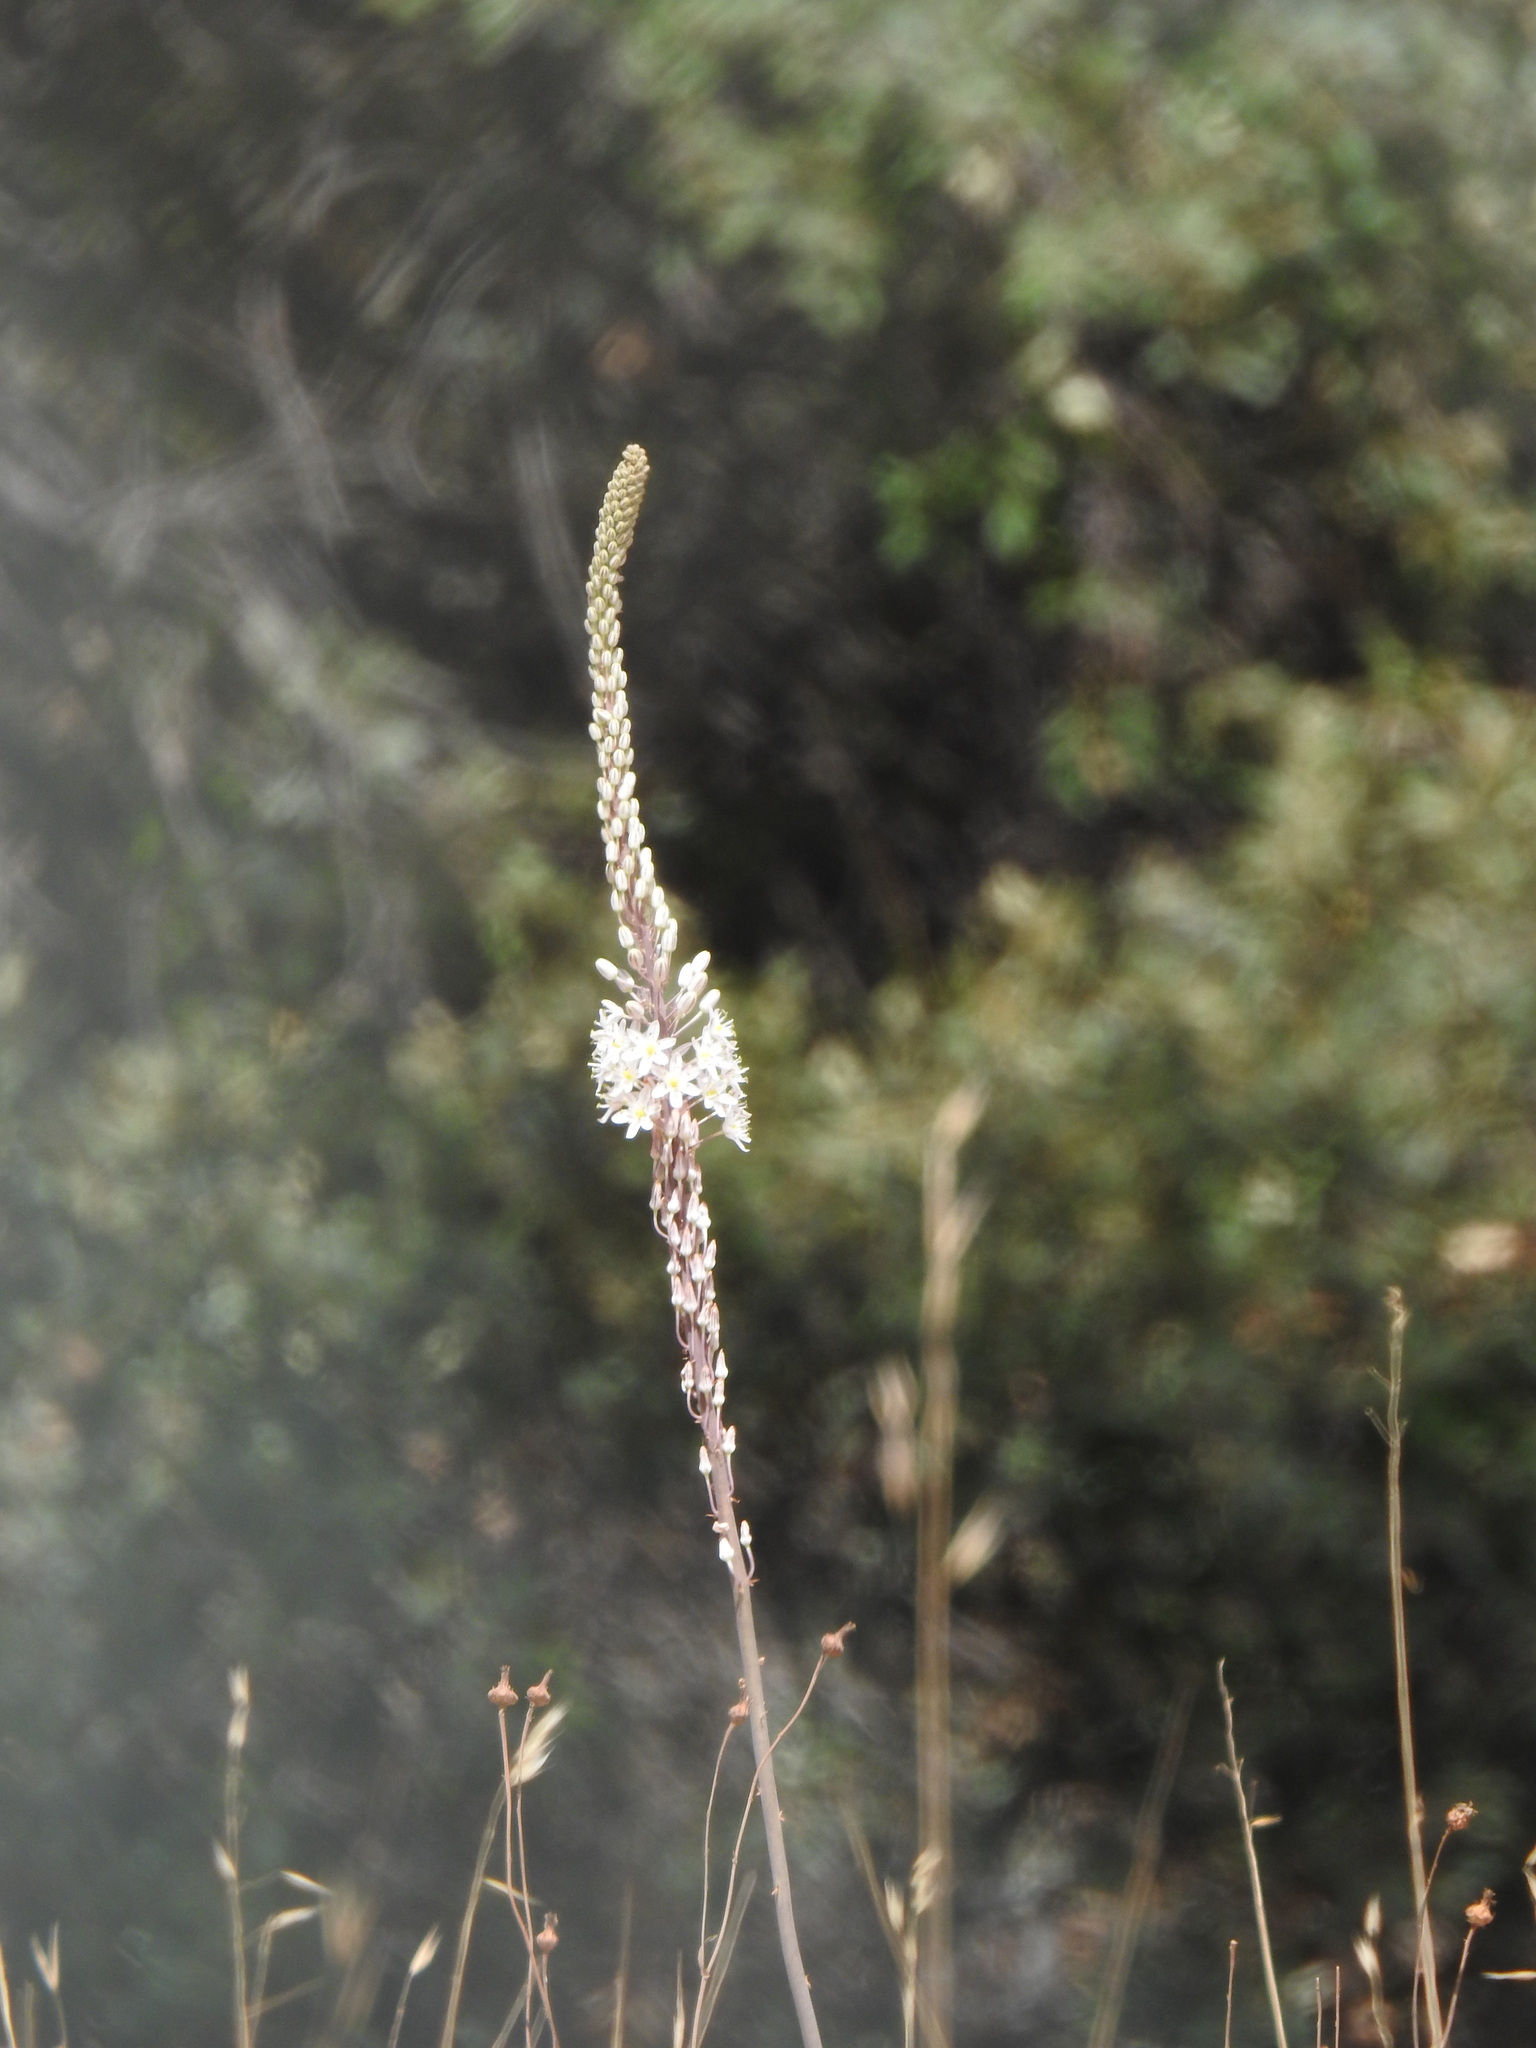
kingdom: Plantae
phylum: Tracheophyta
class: Liliopsida
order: Asparagales
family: Asparagaceae
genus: Drimia
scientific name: Drimia maritima
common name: Maritime squill
